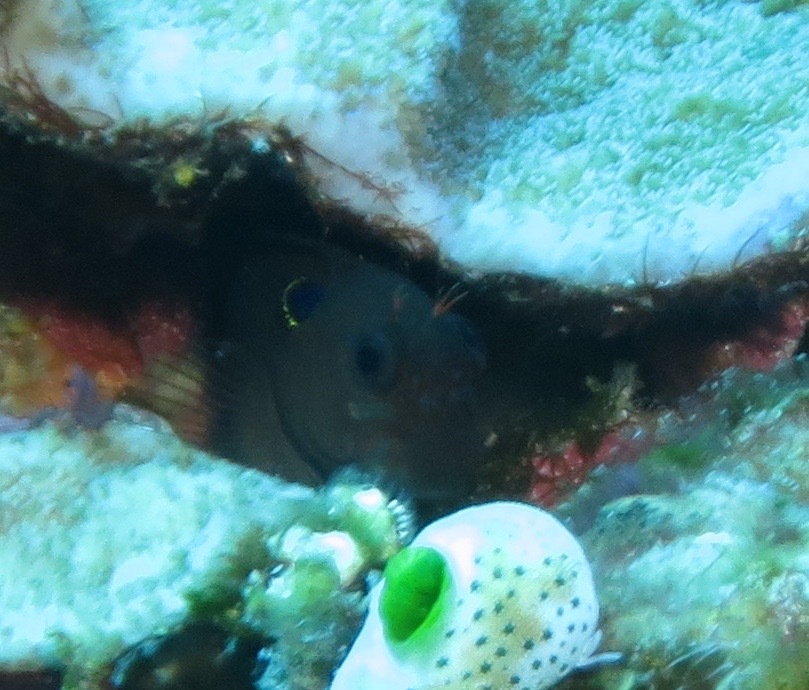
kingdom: Animalia
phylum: Chordata
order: Perciformes
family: Blenniidae
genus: Cirripectes
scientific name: Cirripectes auritus
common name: Eared blenny
